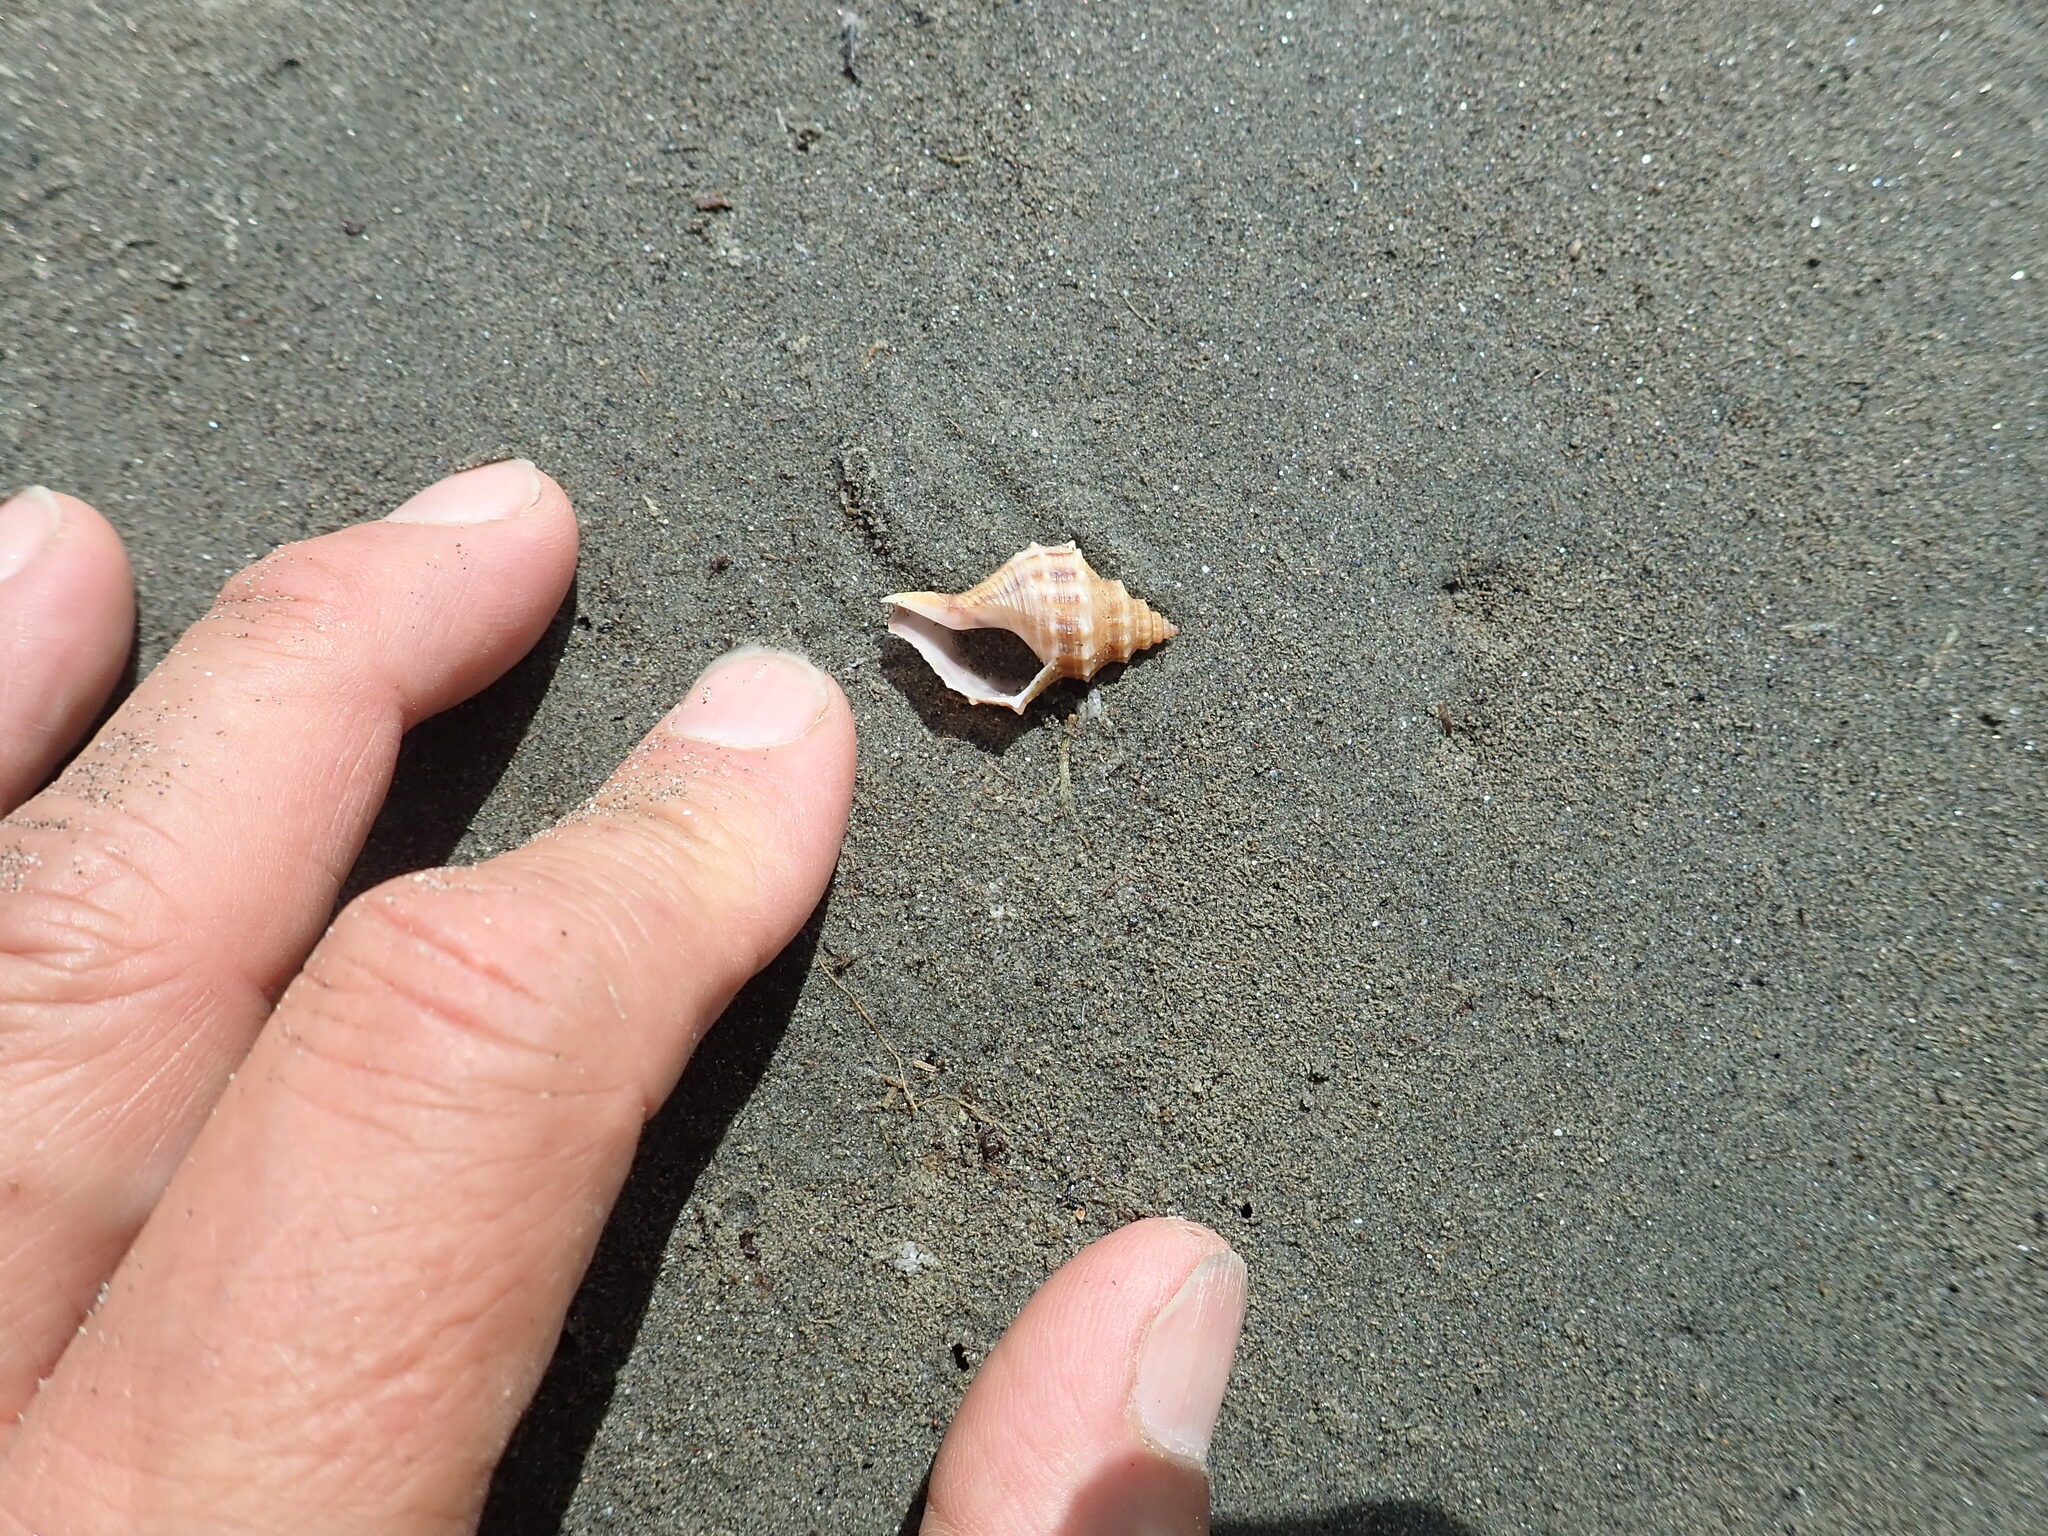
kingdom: Animalia
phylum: Mollusca
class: Gastropoda
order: Neogastropoda
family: Prosiphonidae
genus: Austrofusus
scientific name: Austrofusus glans
